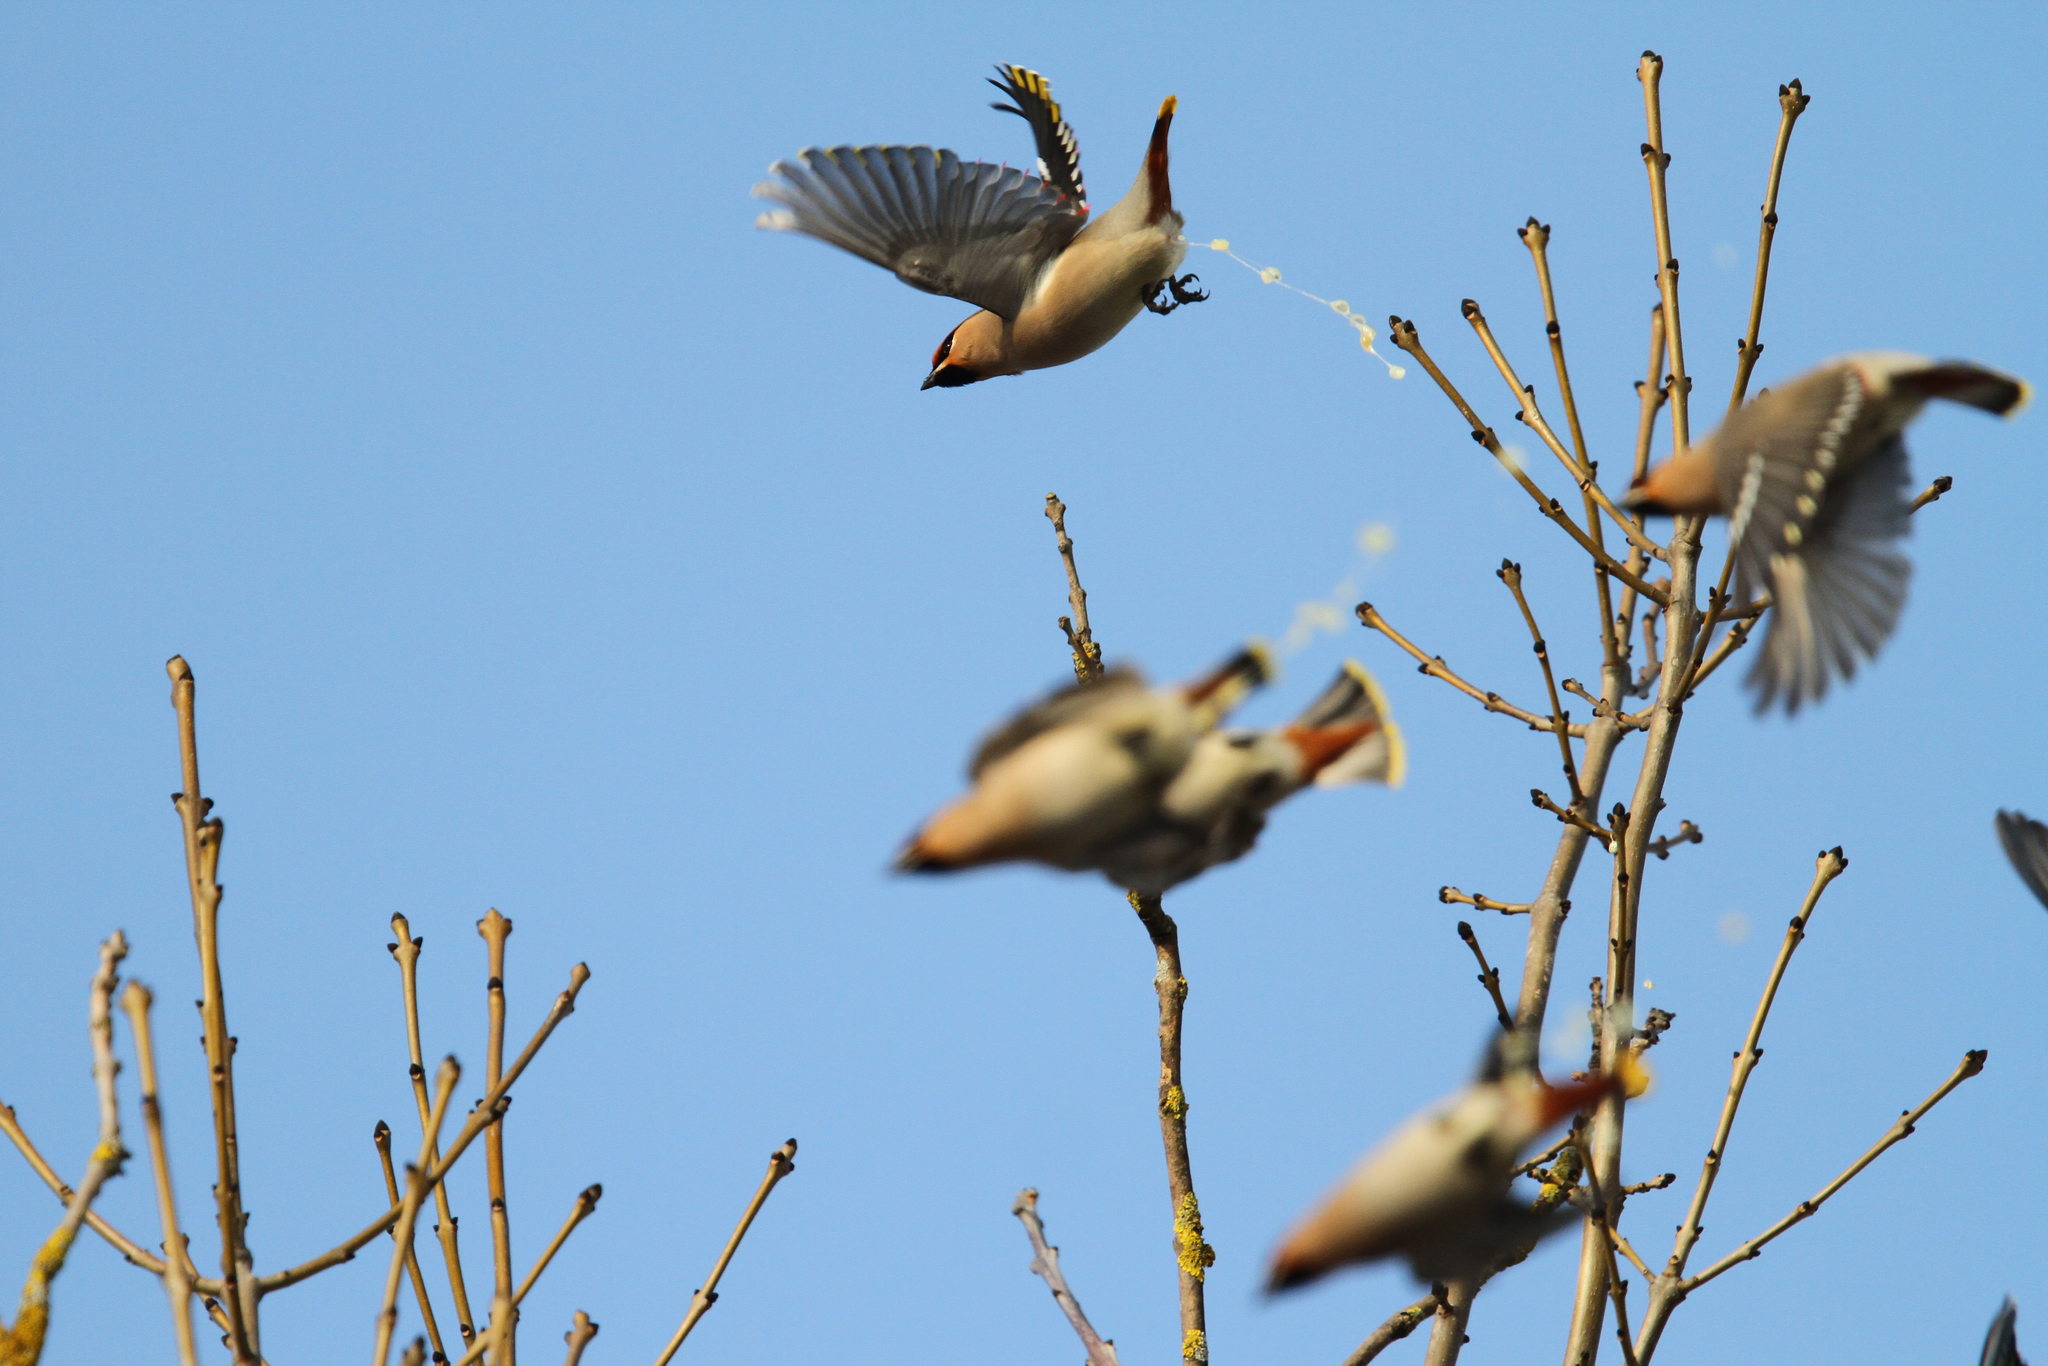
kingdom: Animalia
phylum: Chordata
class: Aves
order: Passeriformes
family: Bombycillidae
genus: Bombycilla
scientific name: Bombycilla garrulus
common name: Bohemian waxwing
